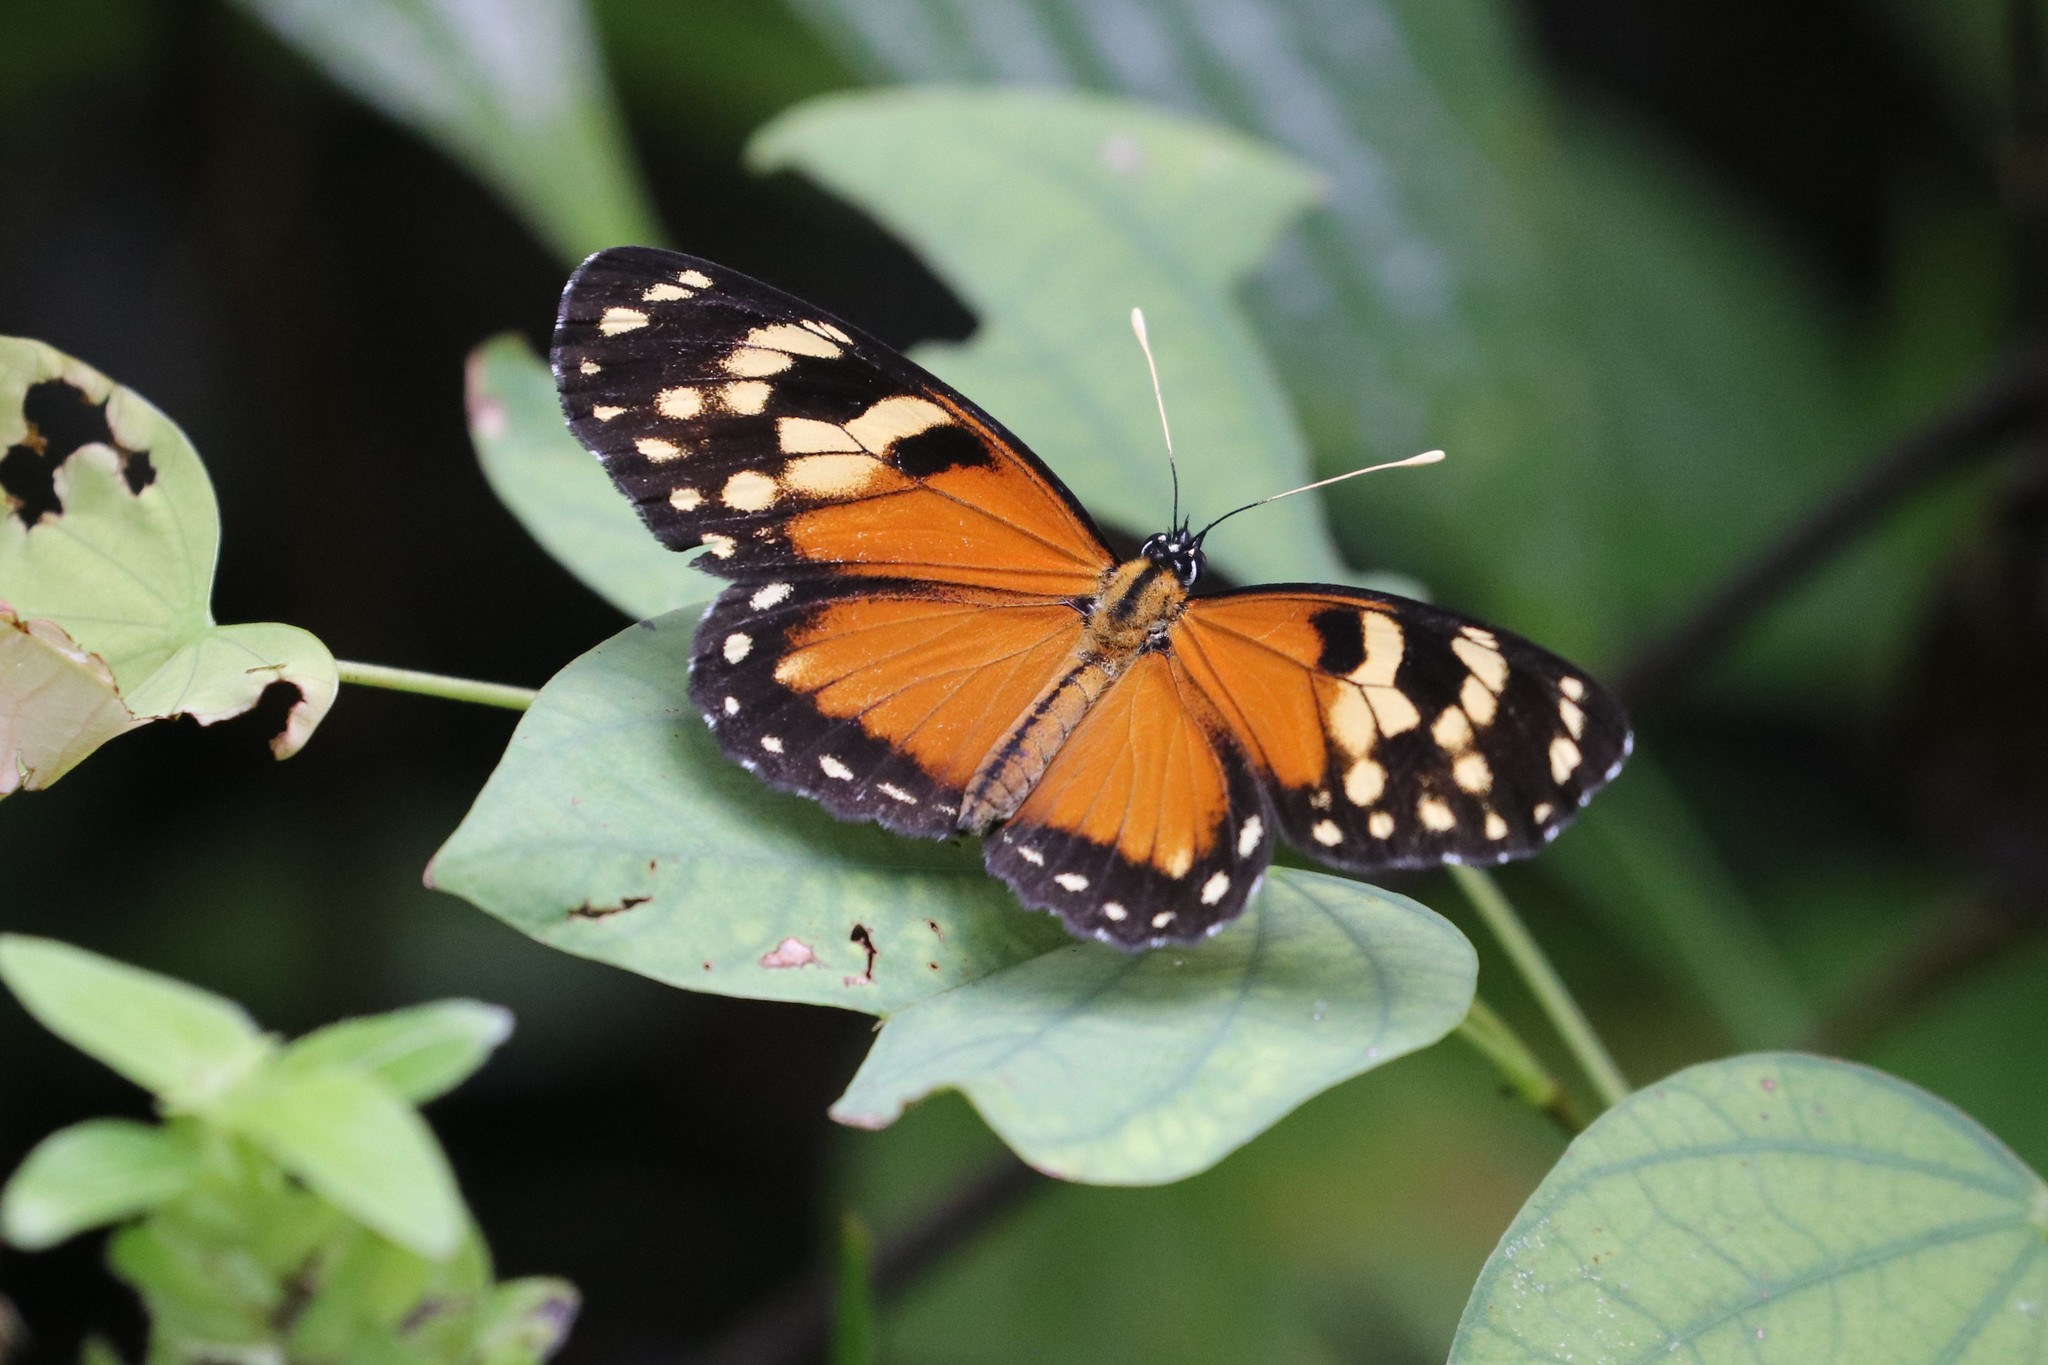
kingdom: Animalia
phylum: Arthropoda
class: Insecta
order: Lepidoptera
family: Nymphalidae
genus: Eresia
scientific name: Eresia mimas
